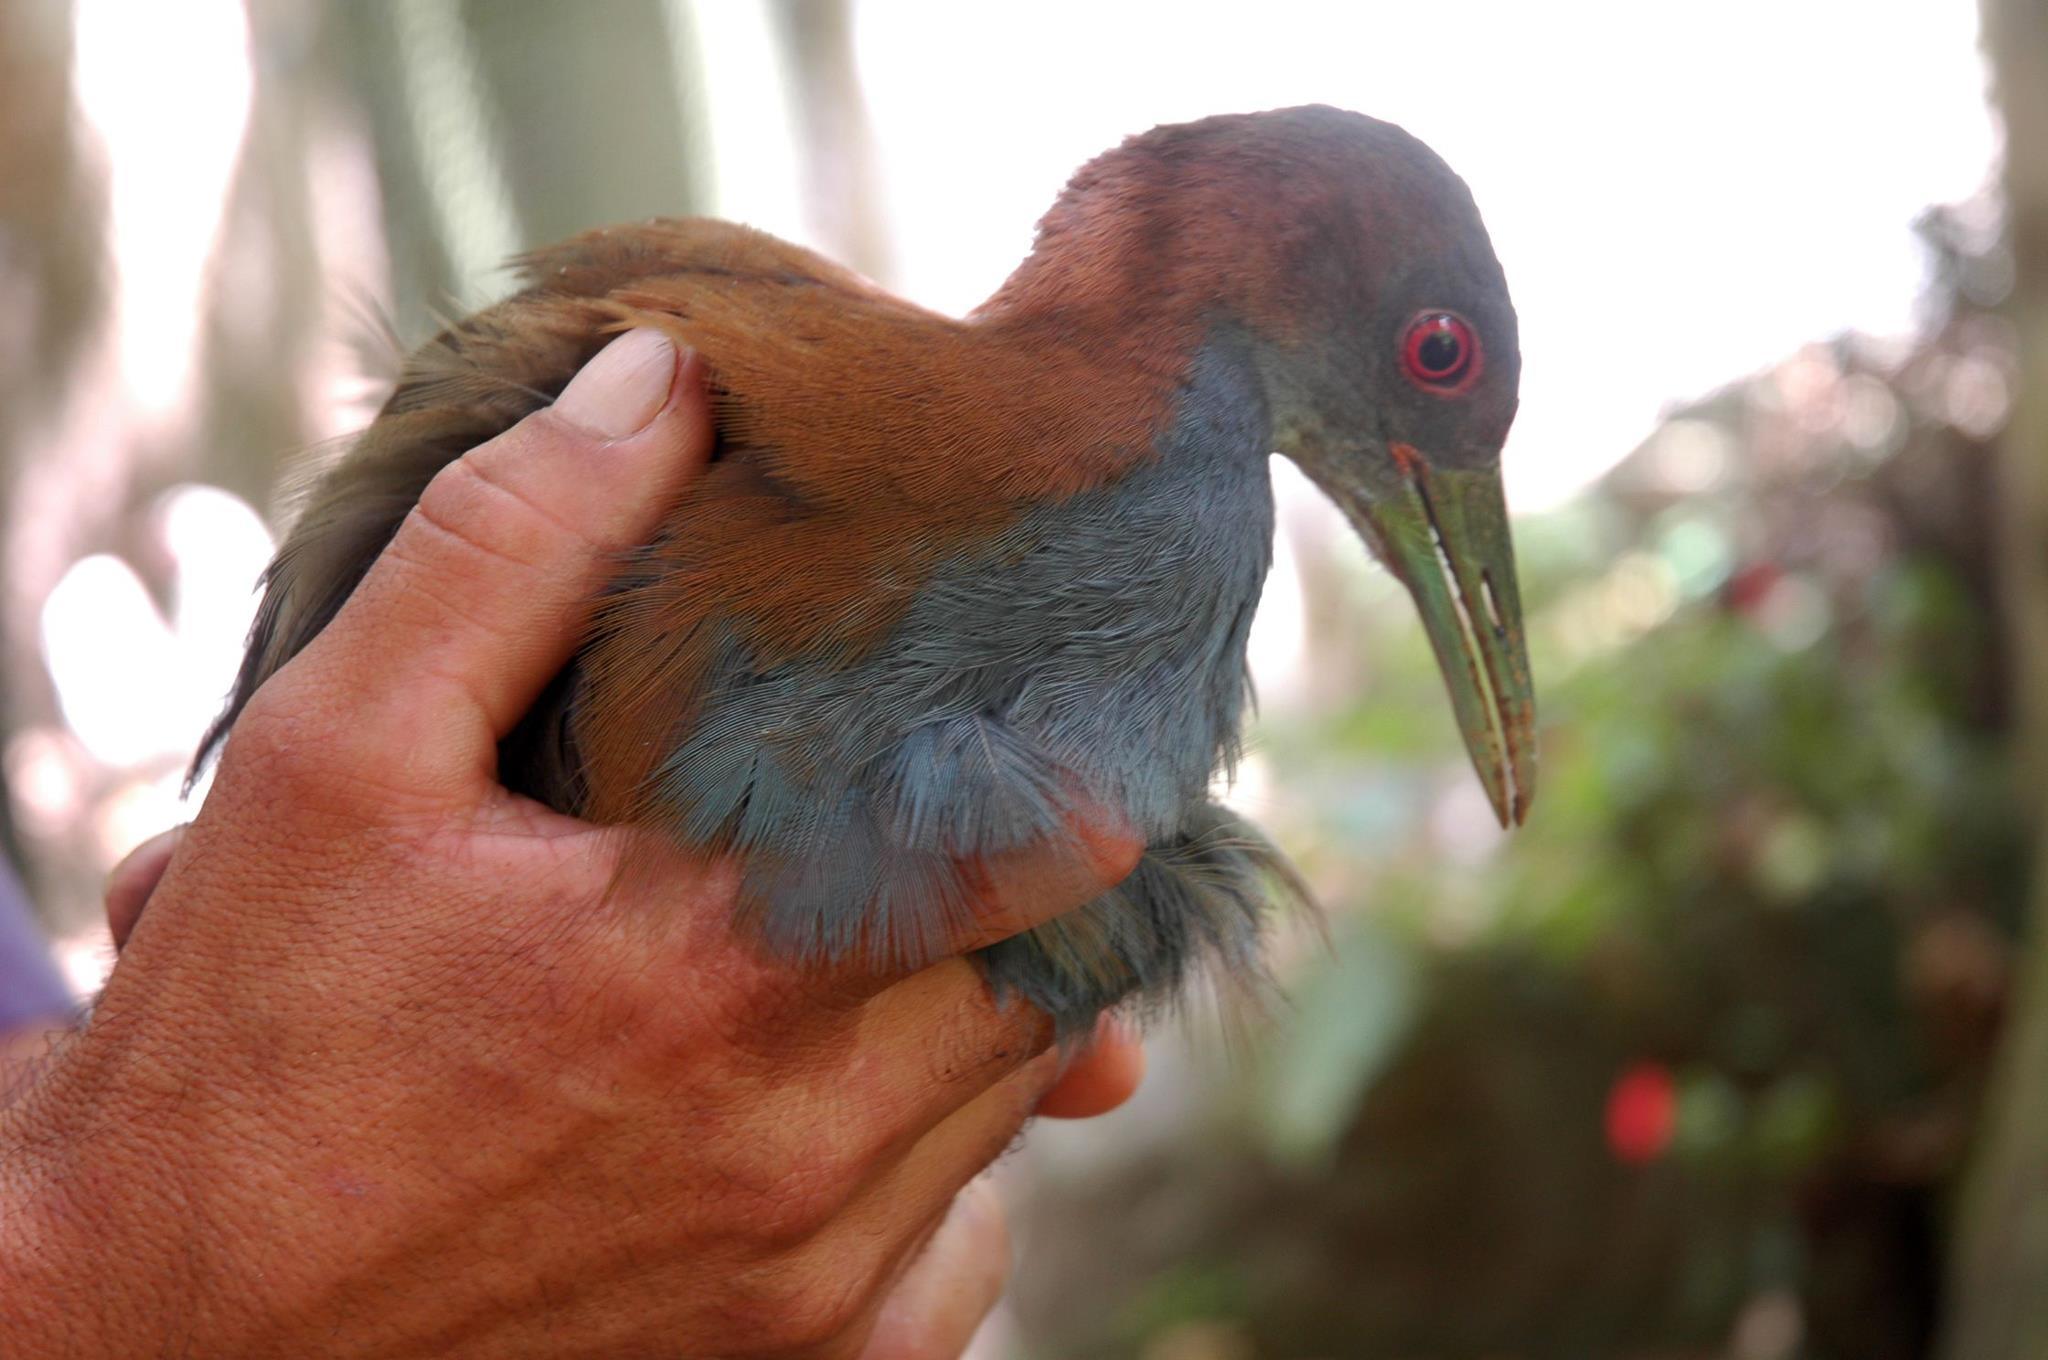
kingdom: Animalia
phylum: Chordata
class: Aves
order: Gruiformes
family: Rallidae
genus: Aramides
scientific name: Aramides saracura
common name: Slaty-breasted wood rail
